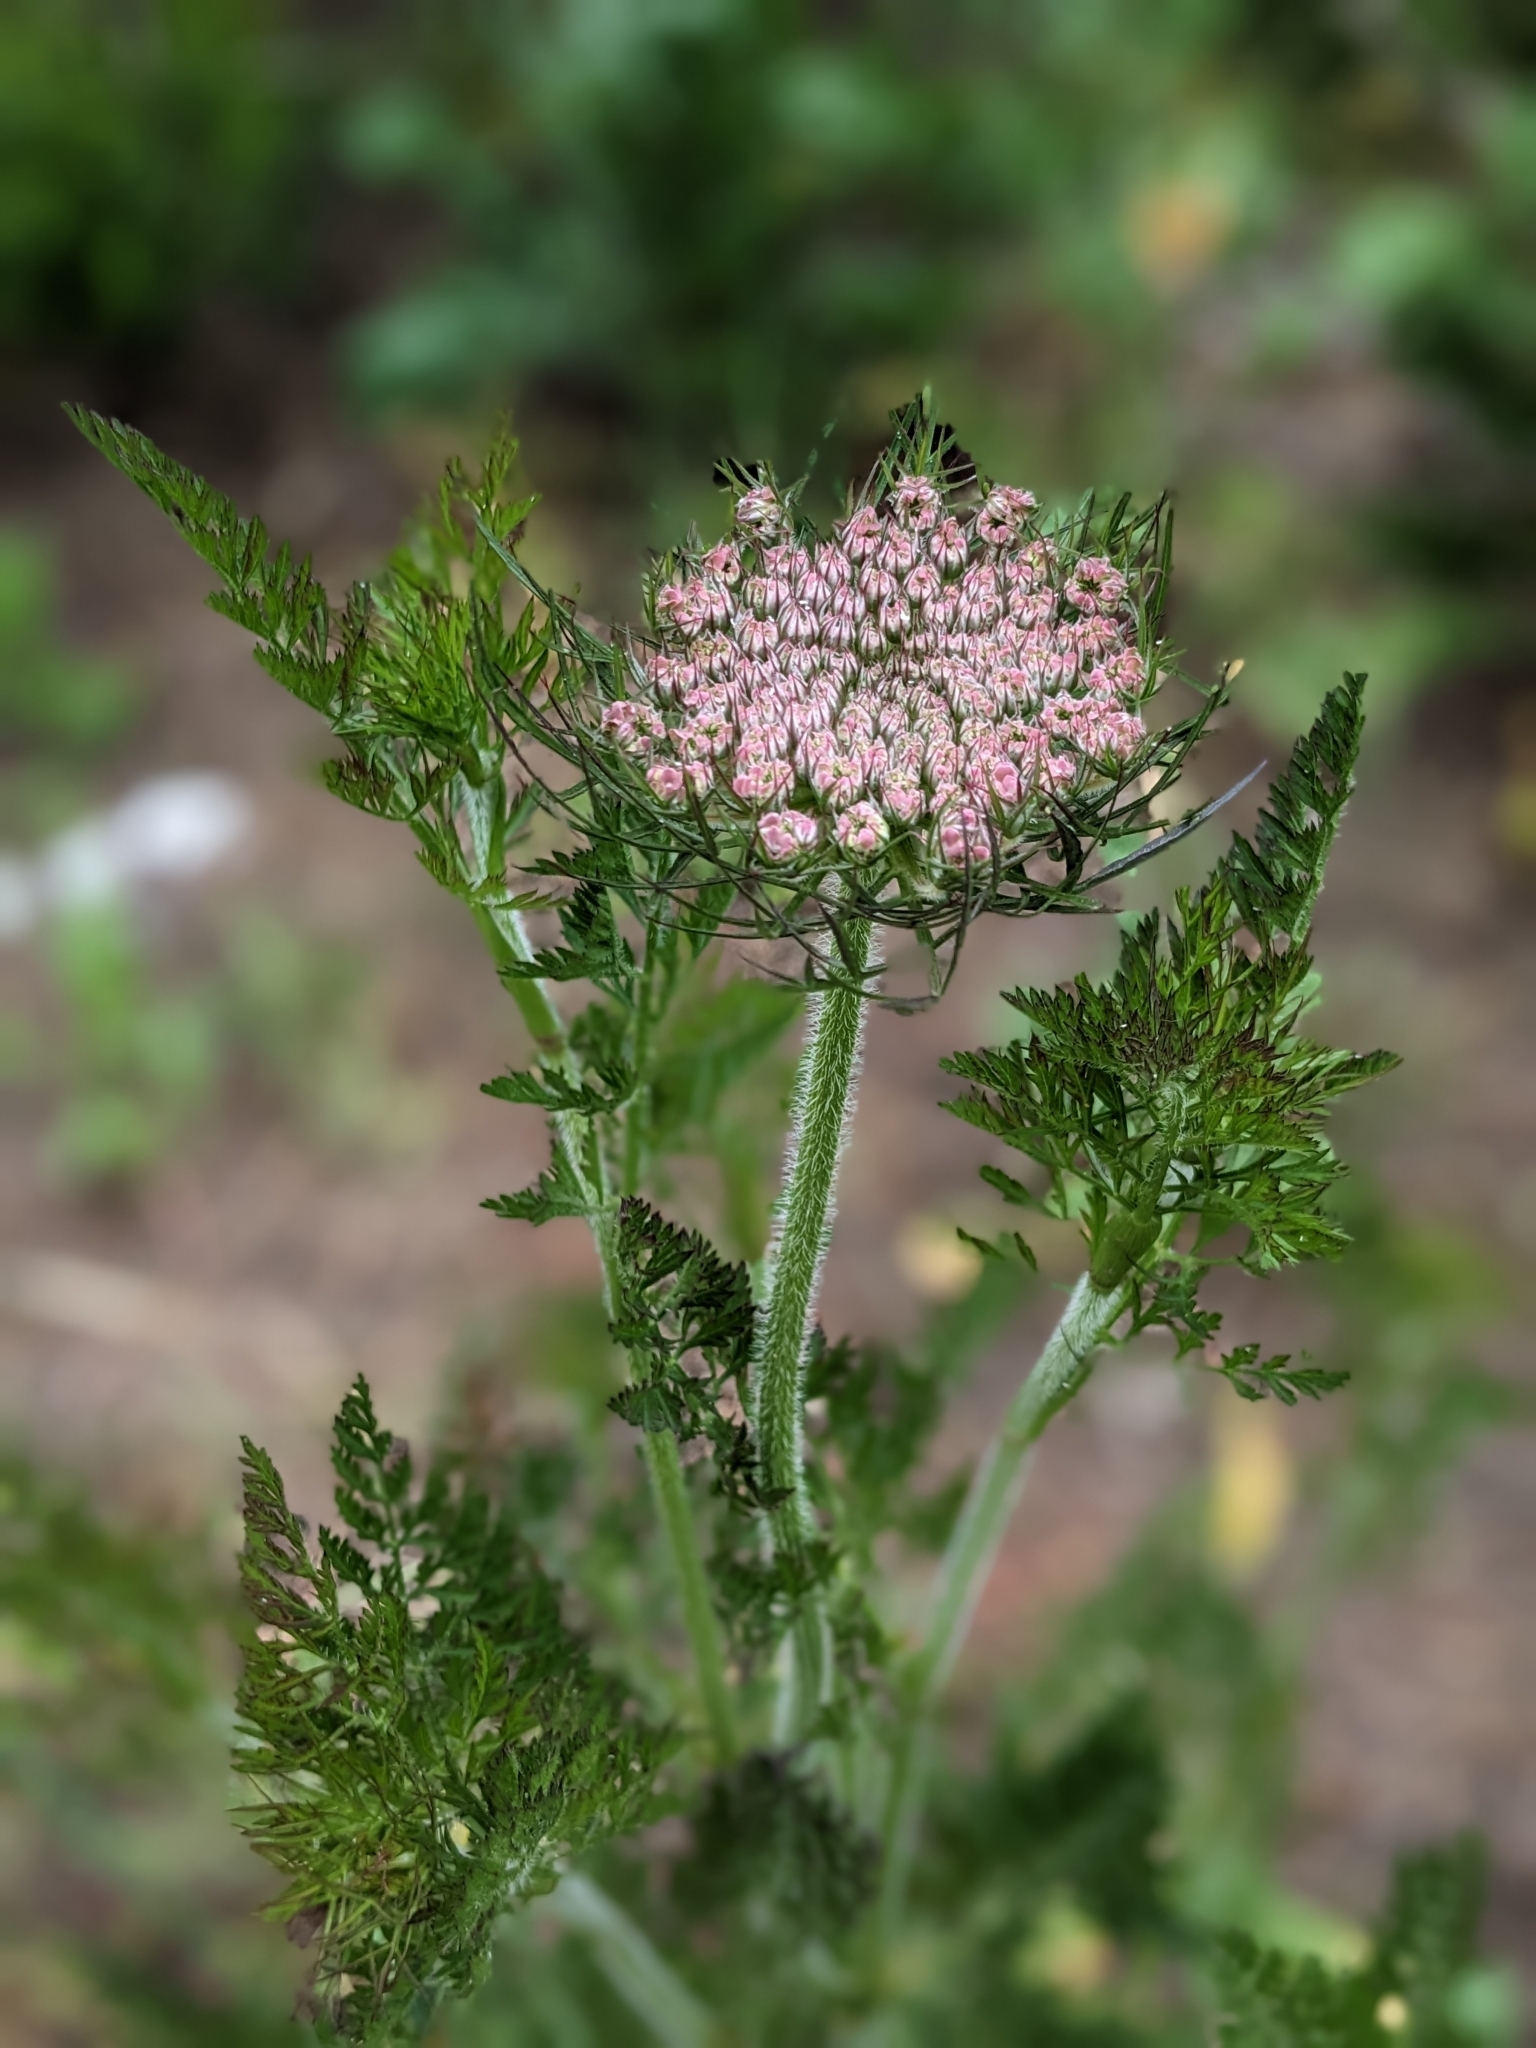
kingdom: Plantae
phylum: Tracheophyta
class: Magnoliopsida
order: Apiales
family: Apiaceae
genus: Daucus
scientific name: Daucus carota
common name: Wild carrot
